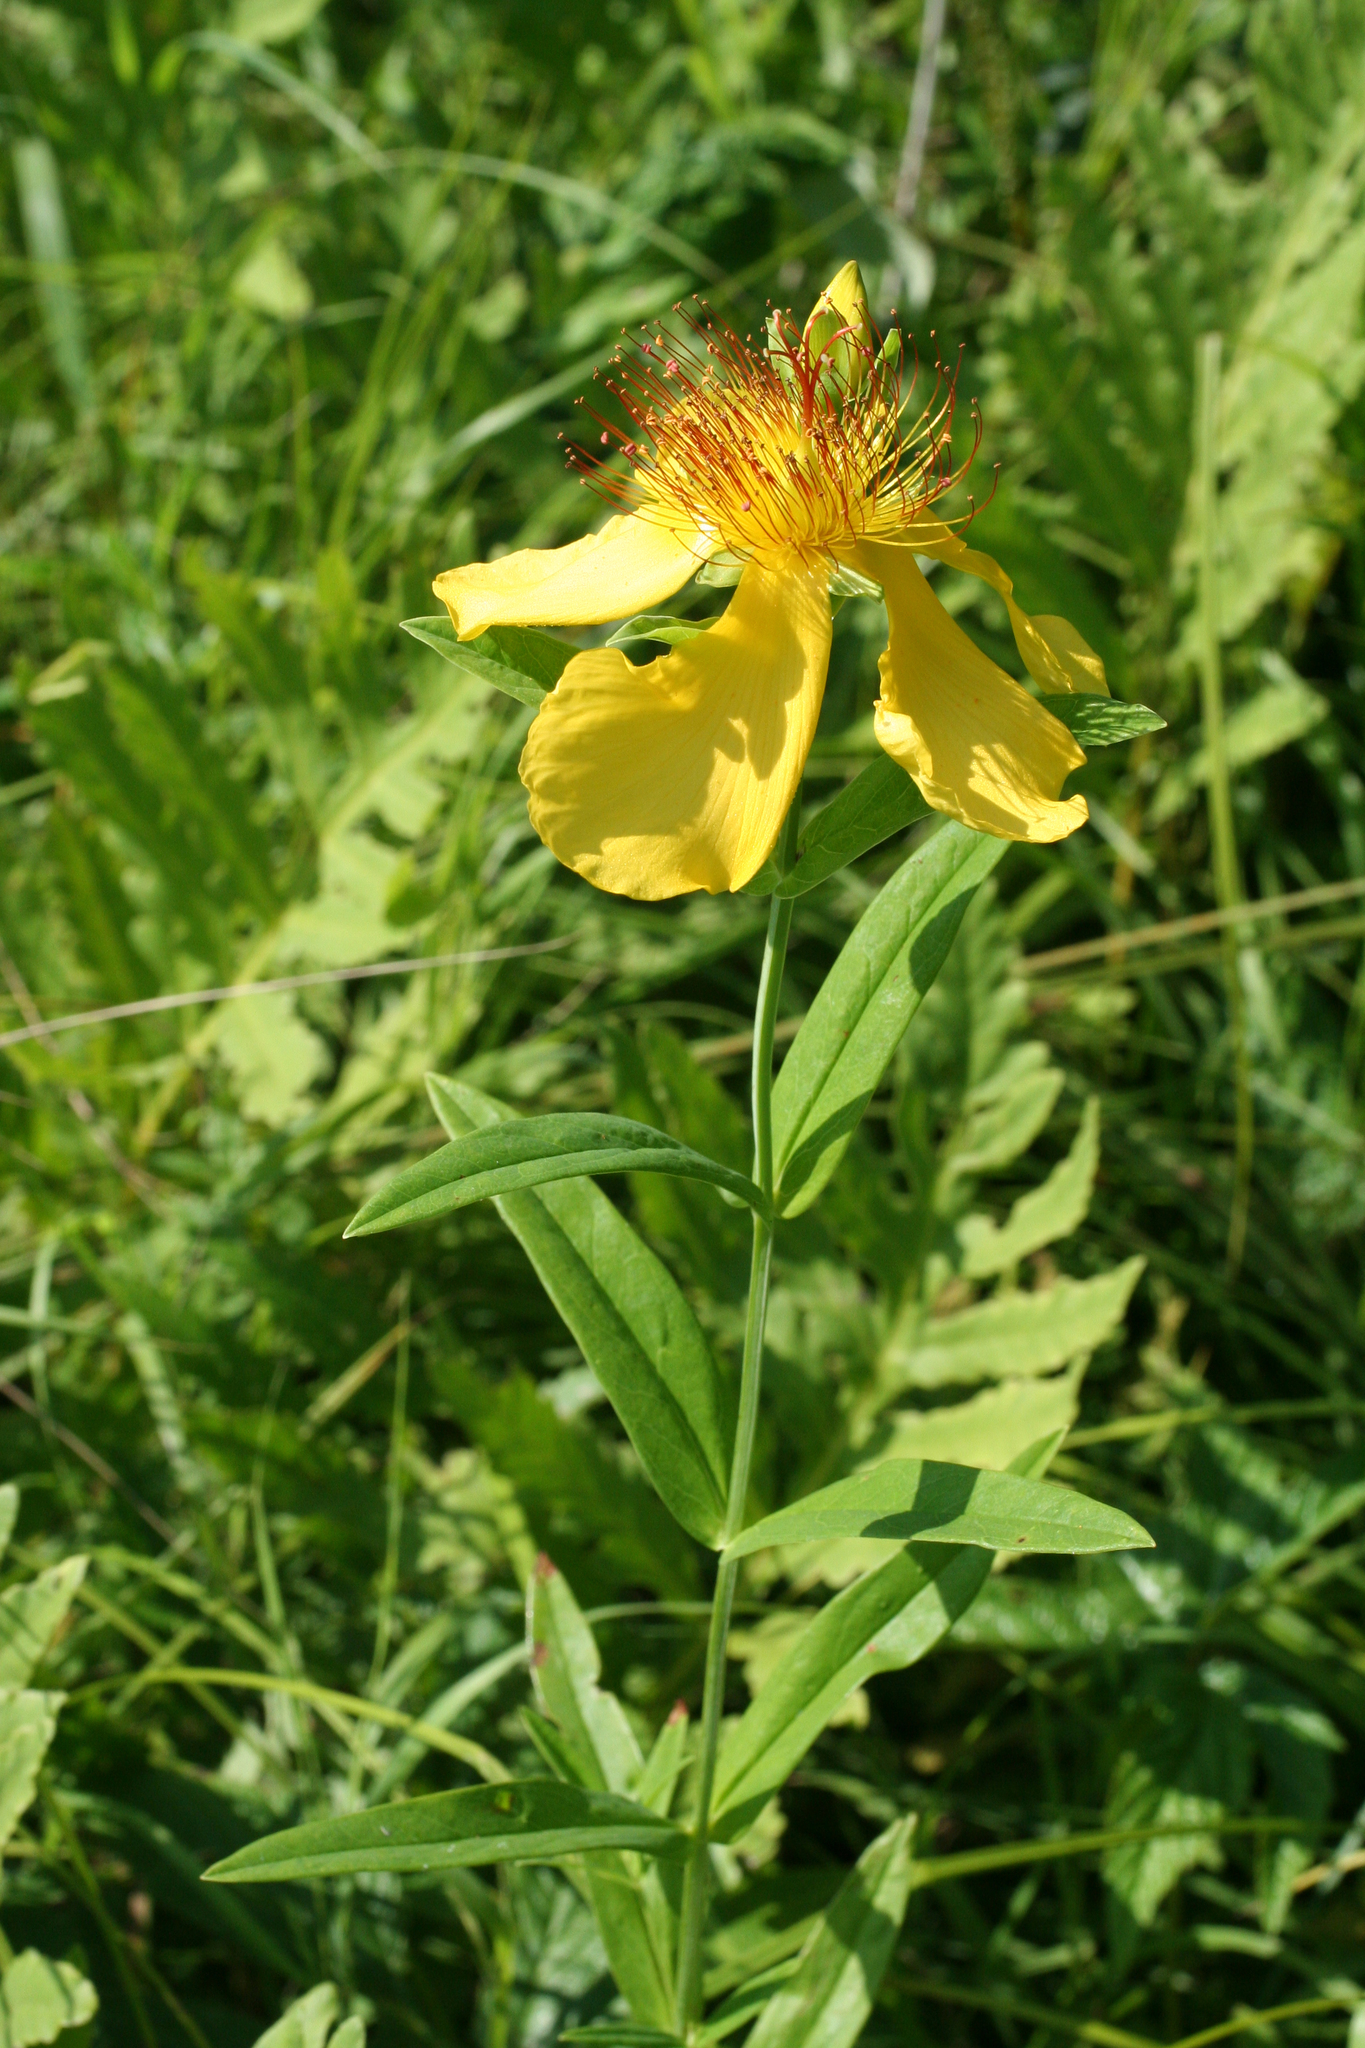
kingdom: Plantae
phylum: Tracheophyta
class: Magnoliopsida
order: Malpighiales
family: Hypericaceae
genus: Hypericum
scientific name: Hypericum ascyron
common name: Giant st. john's-wort
